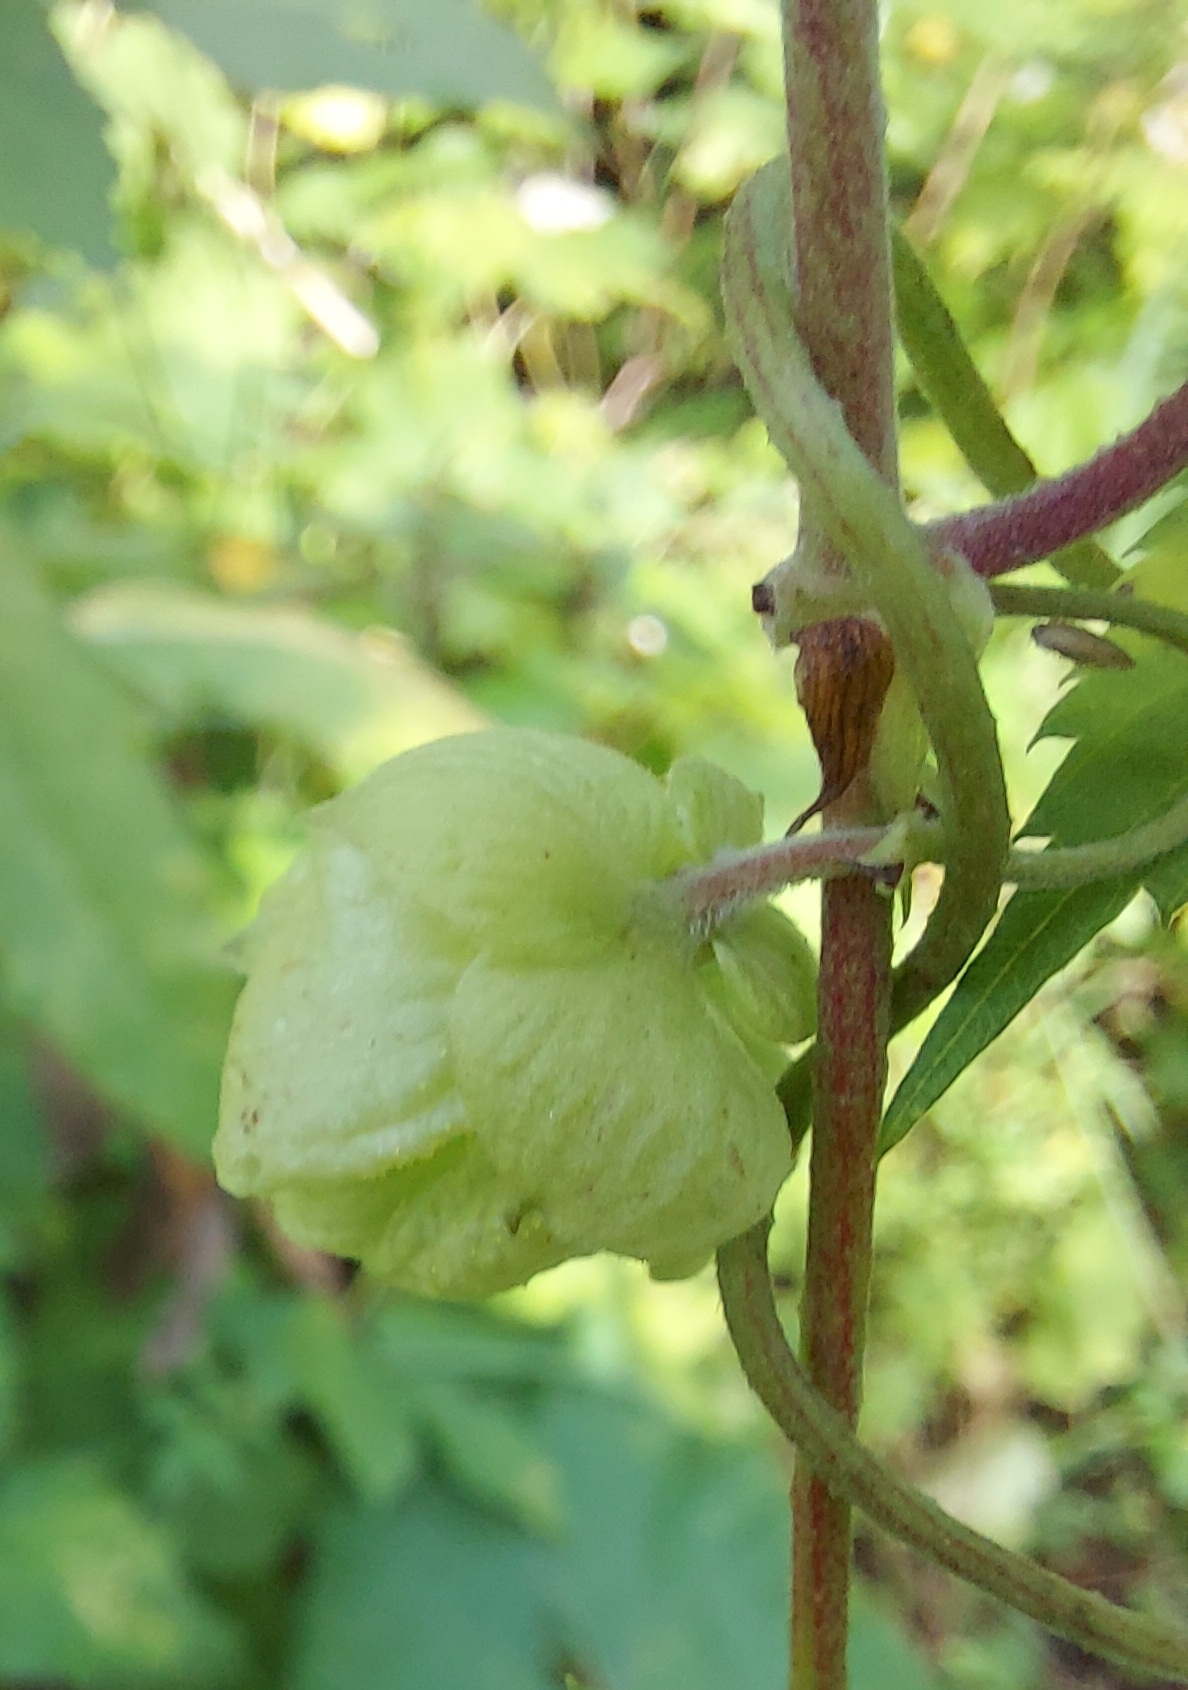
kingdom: Plantae
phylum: Tracheophyta
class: Magnoliopsida
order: Rosales
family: Cannabaceae
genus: Humulus
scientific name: Humulus lupulus
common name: Hop
